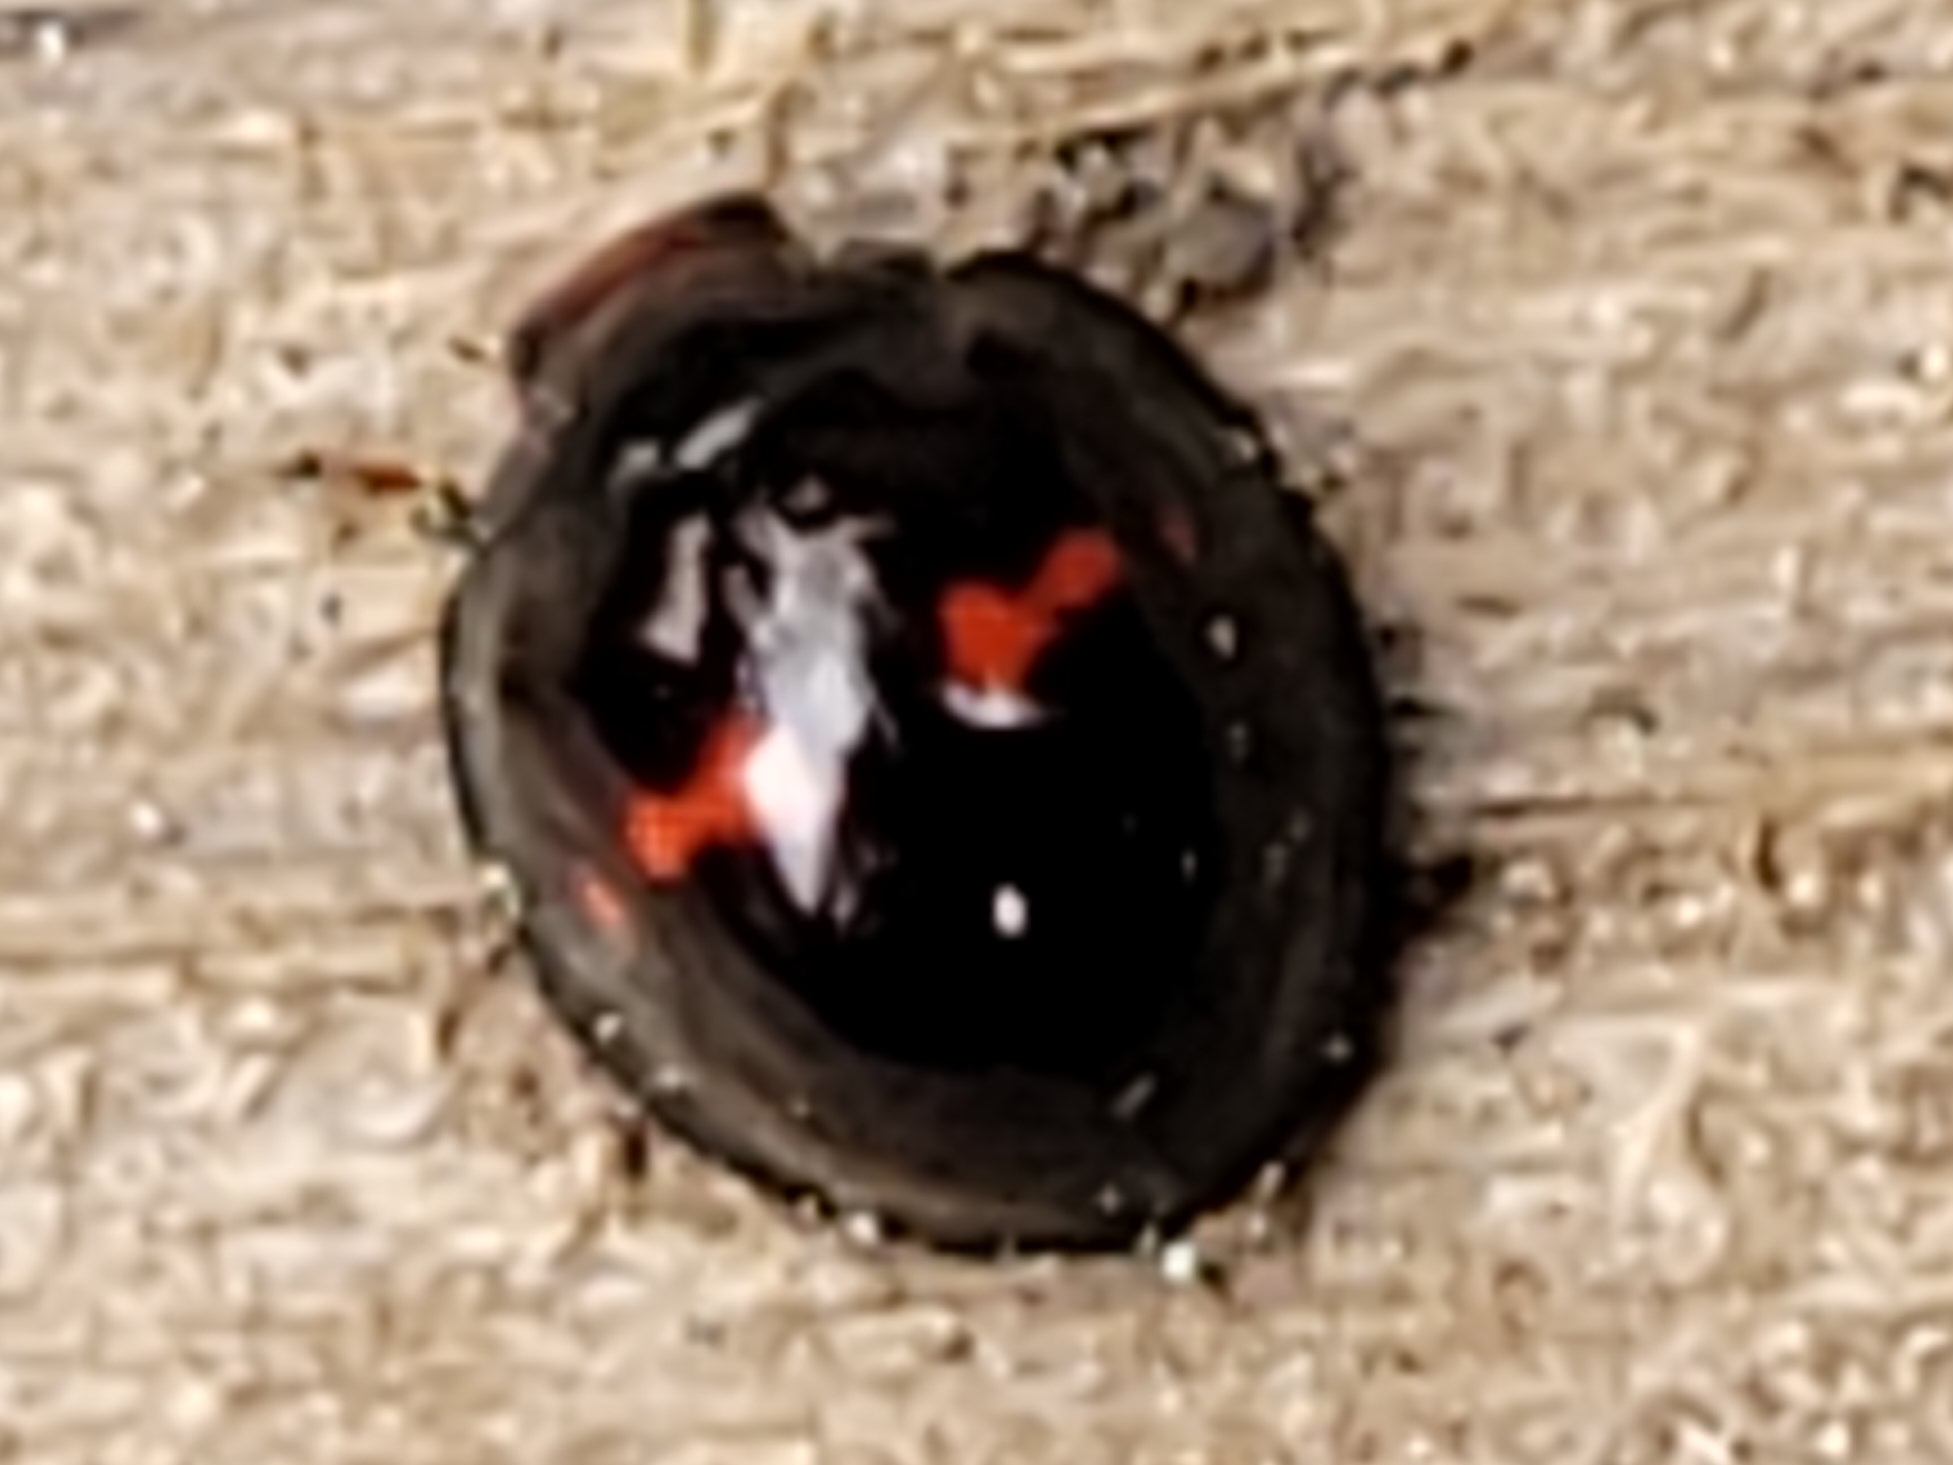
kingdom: Animalia
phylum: Arthropoda
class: Insecta
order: Coleoptera
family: Coccinellidae
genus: Chilocorus
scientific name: Chilocorus bipustulatus
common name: Heather ladybird
